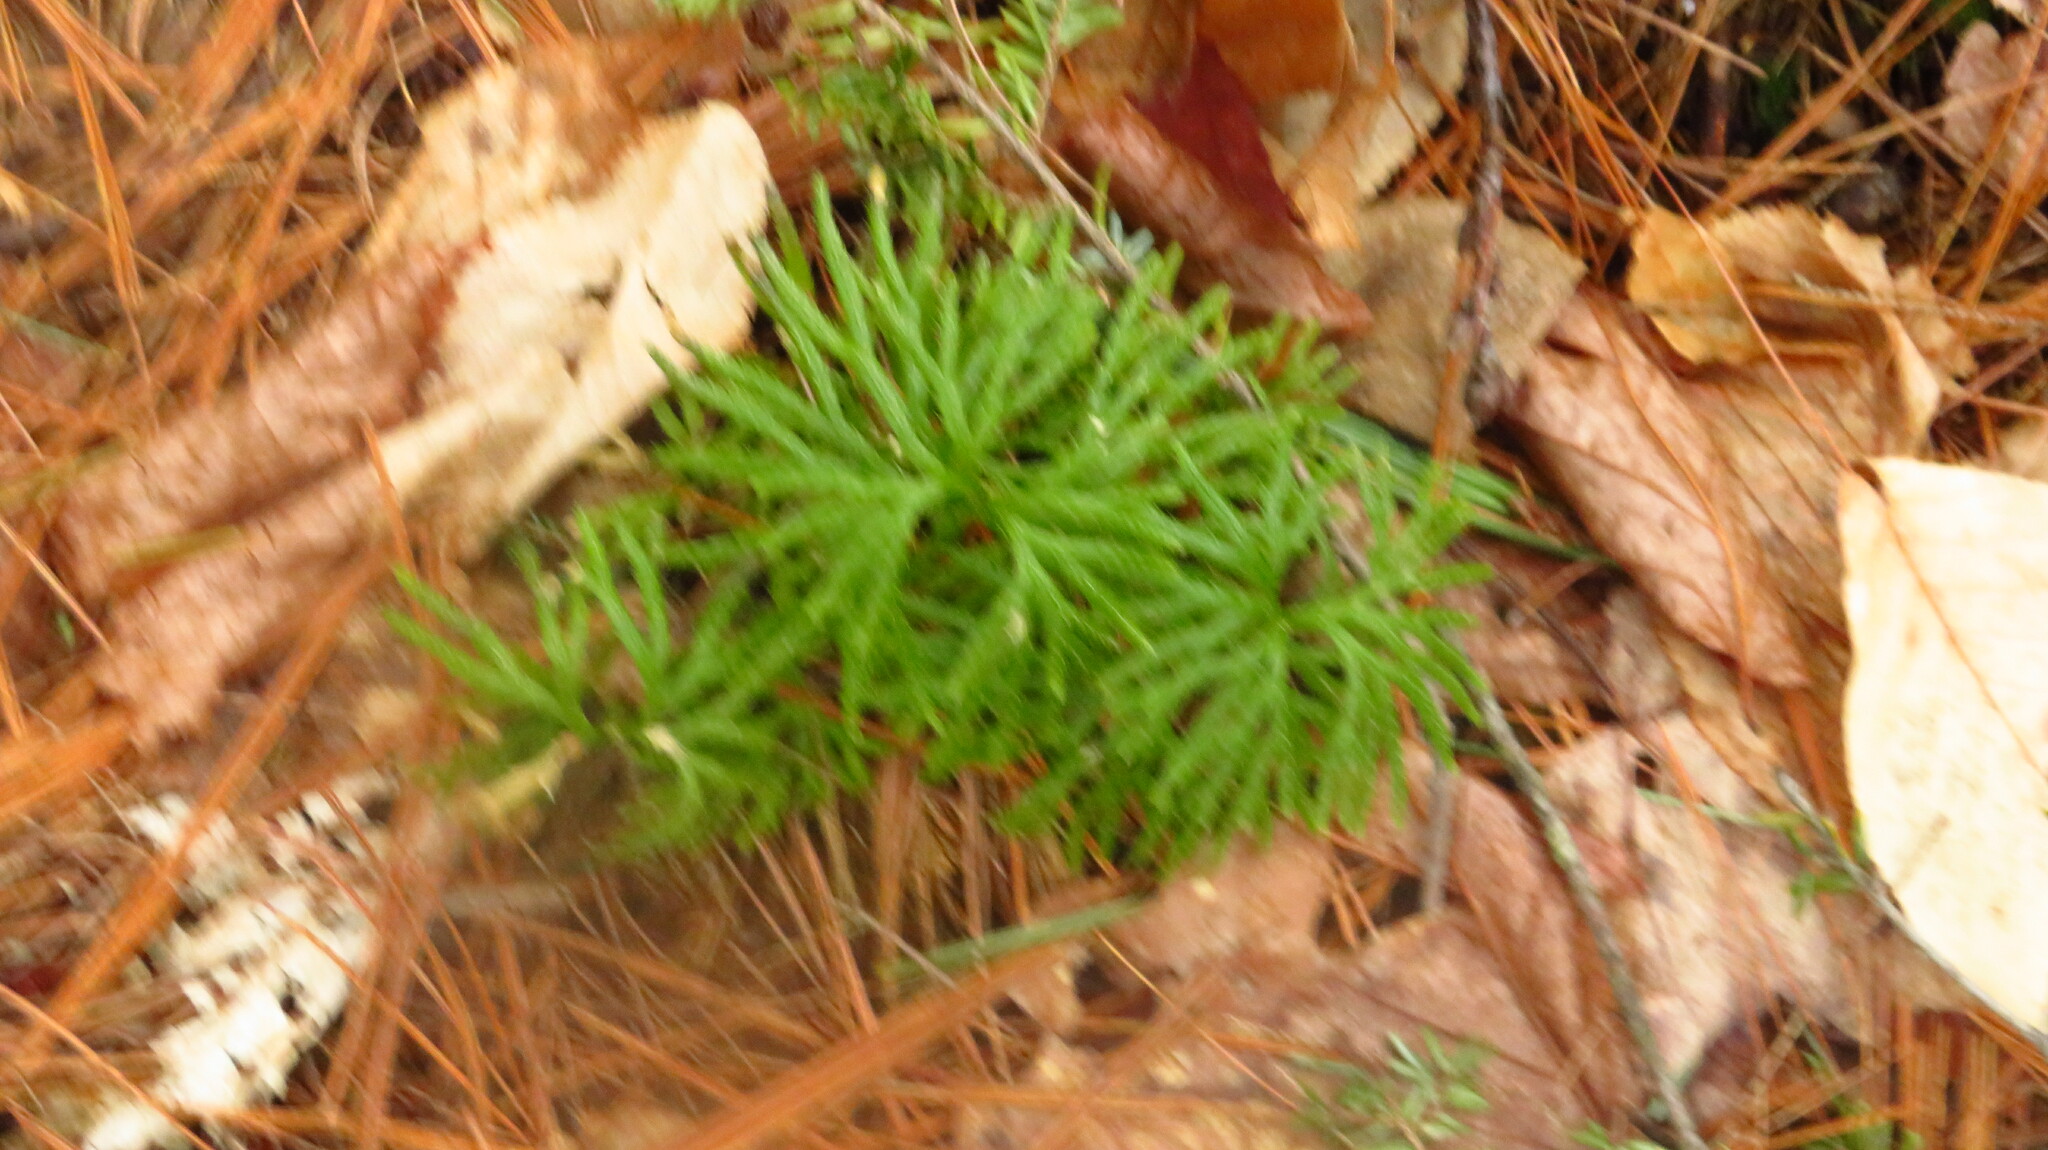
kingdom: Plantae
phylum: Tracheophyta
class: Lycopodiopsida
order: Lycopodiales
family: Lycopodiaceae
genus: Diphasiastrum
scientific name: Diphasiastrum digitatum
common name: Southern running-pine
